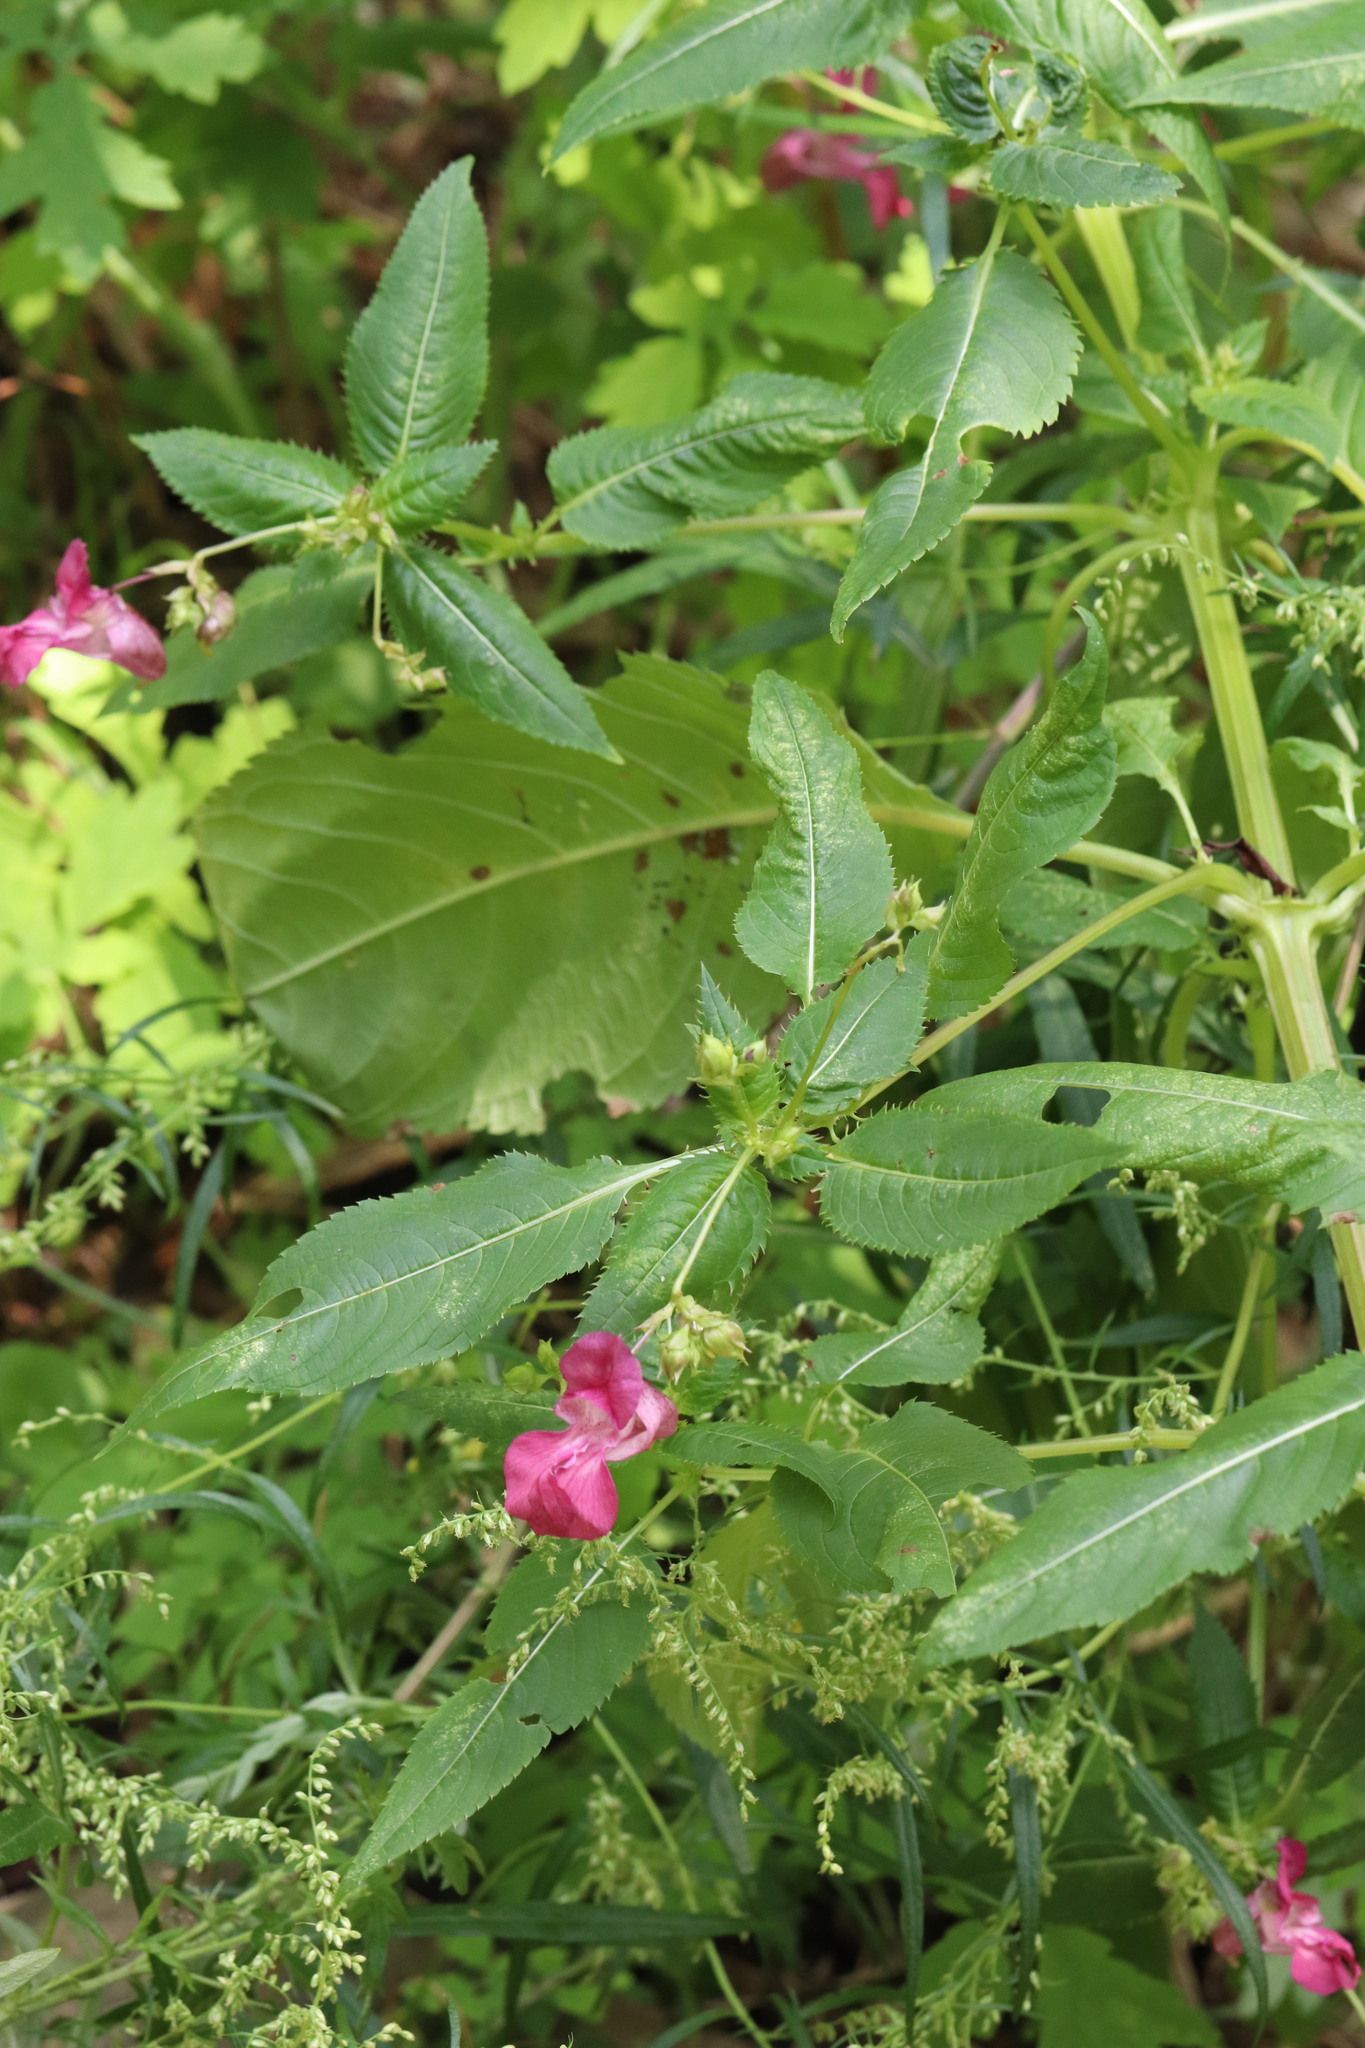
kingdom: Plantae
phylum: Tracheophyta
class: Magnoliopsida
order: Ericales
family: Balsaminaceae
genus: Impatiens
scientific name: Impatiens glandulifera
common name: Himalayan balsam
